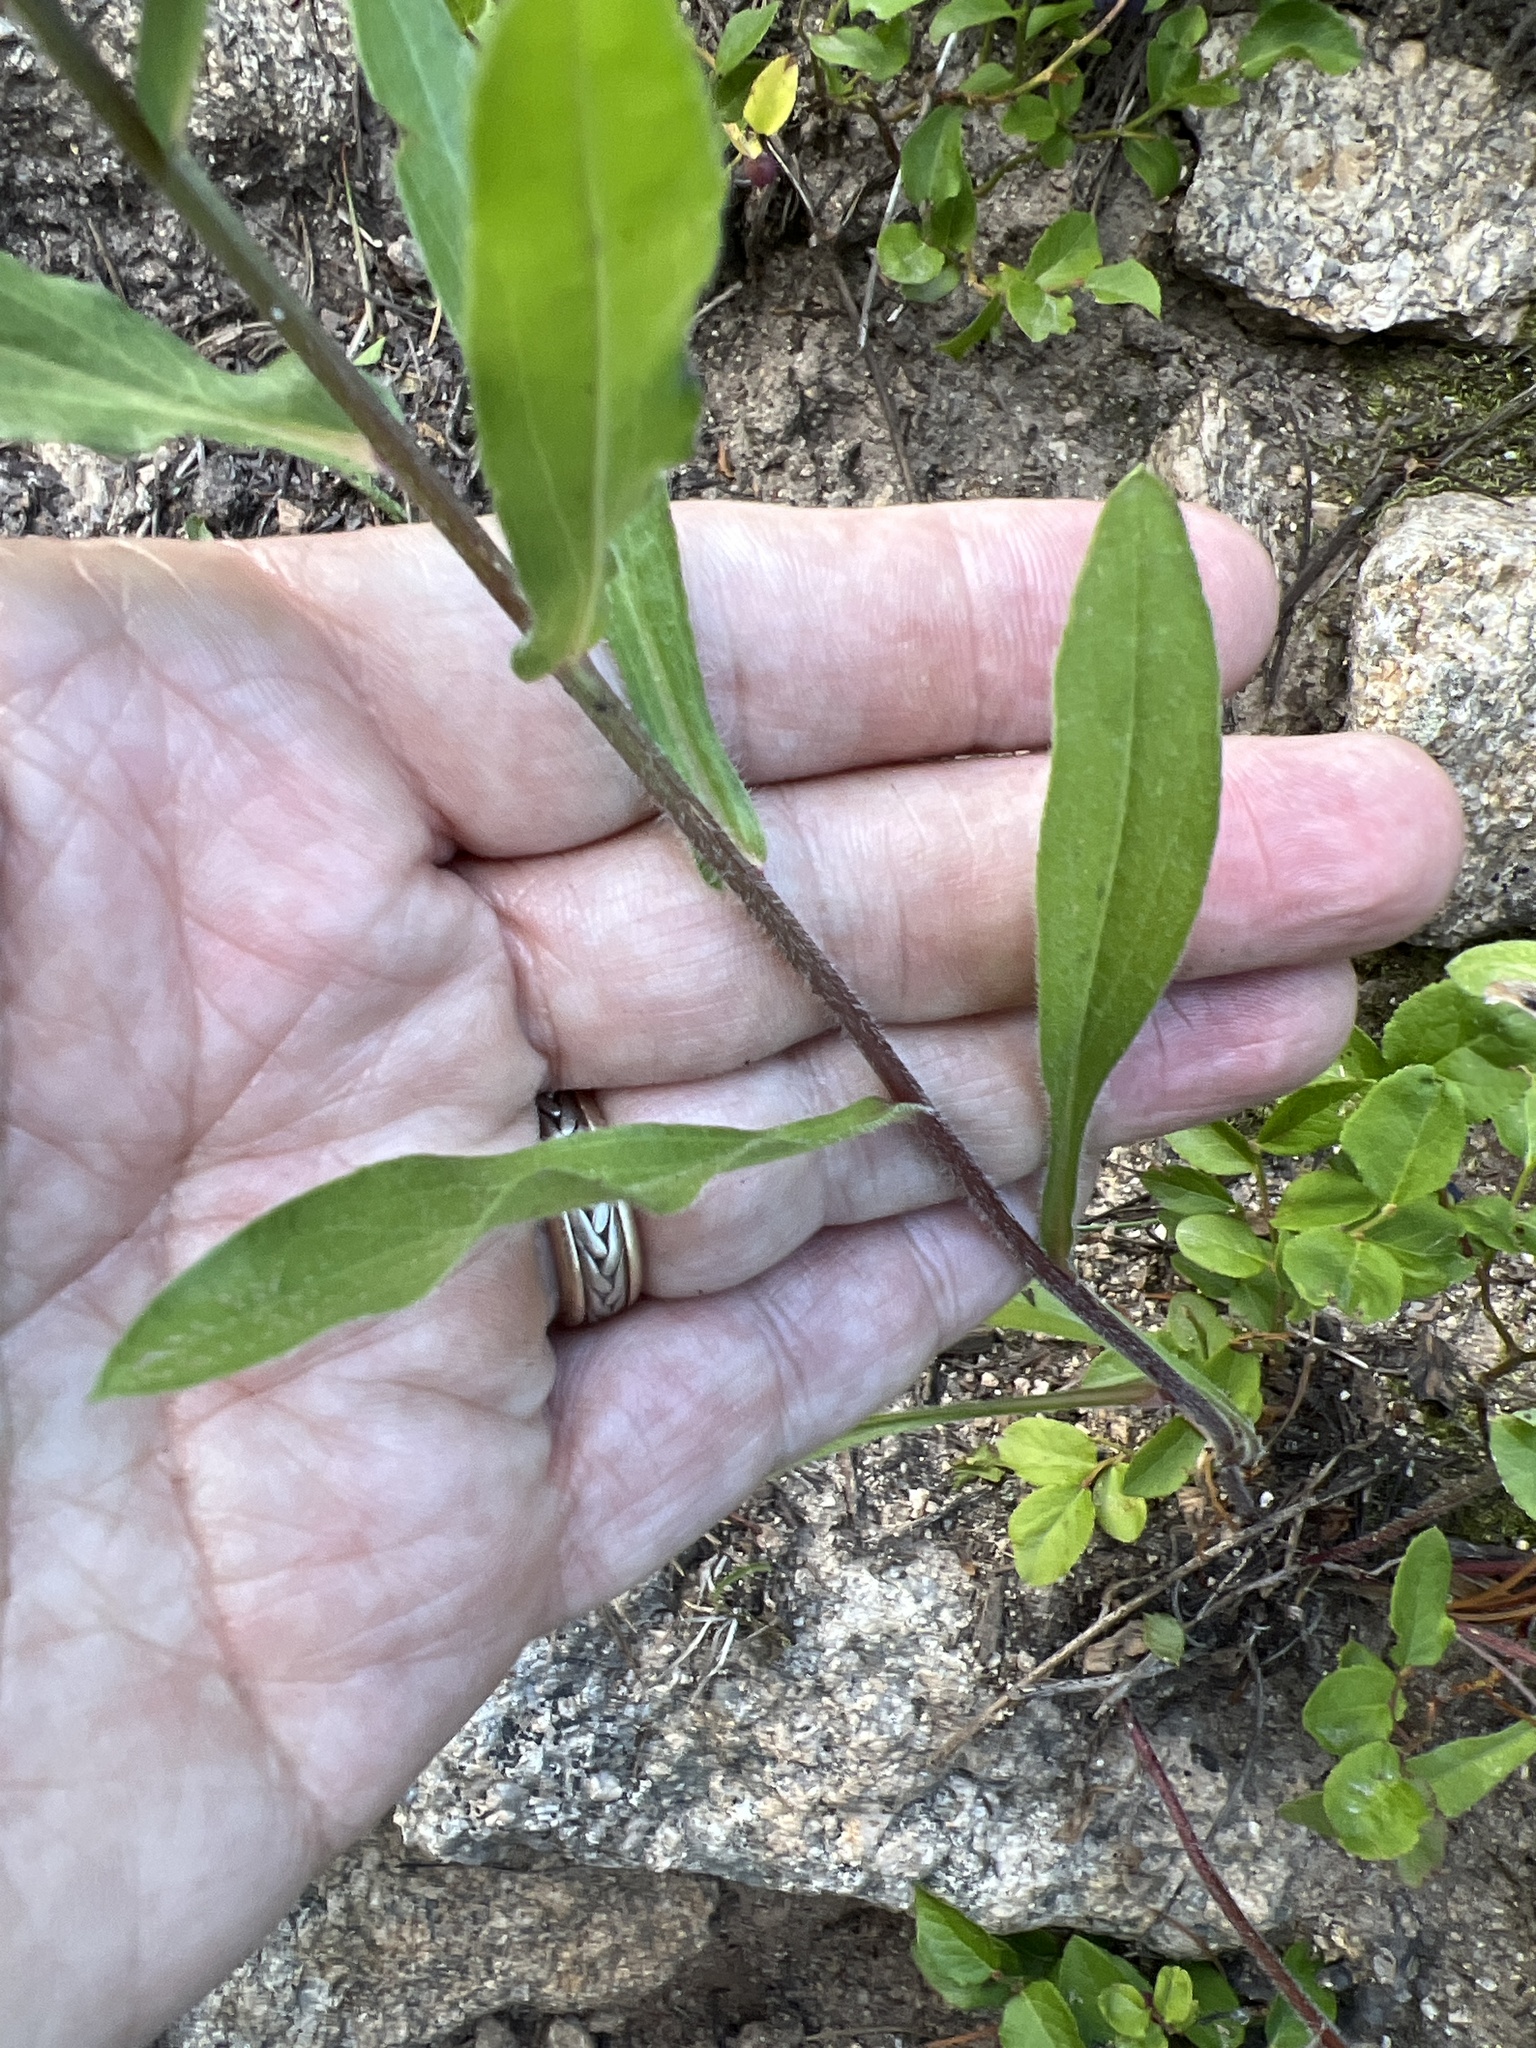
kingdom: Plantae
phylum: Tracheophyta
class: Magnoliopsida
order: Asterales
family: Asteraceae
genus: Erigeron
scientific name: Erigeron speciosus
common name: Aspen fleabane
